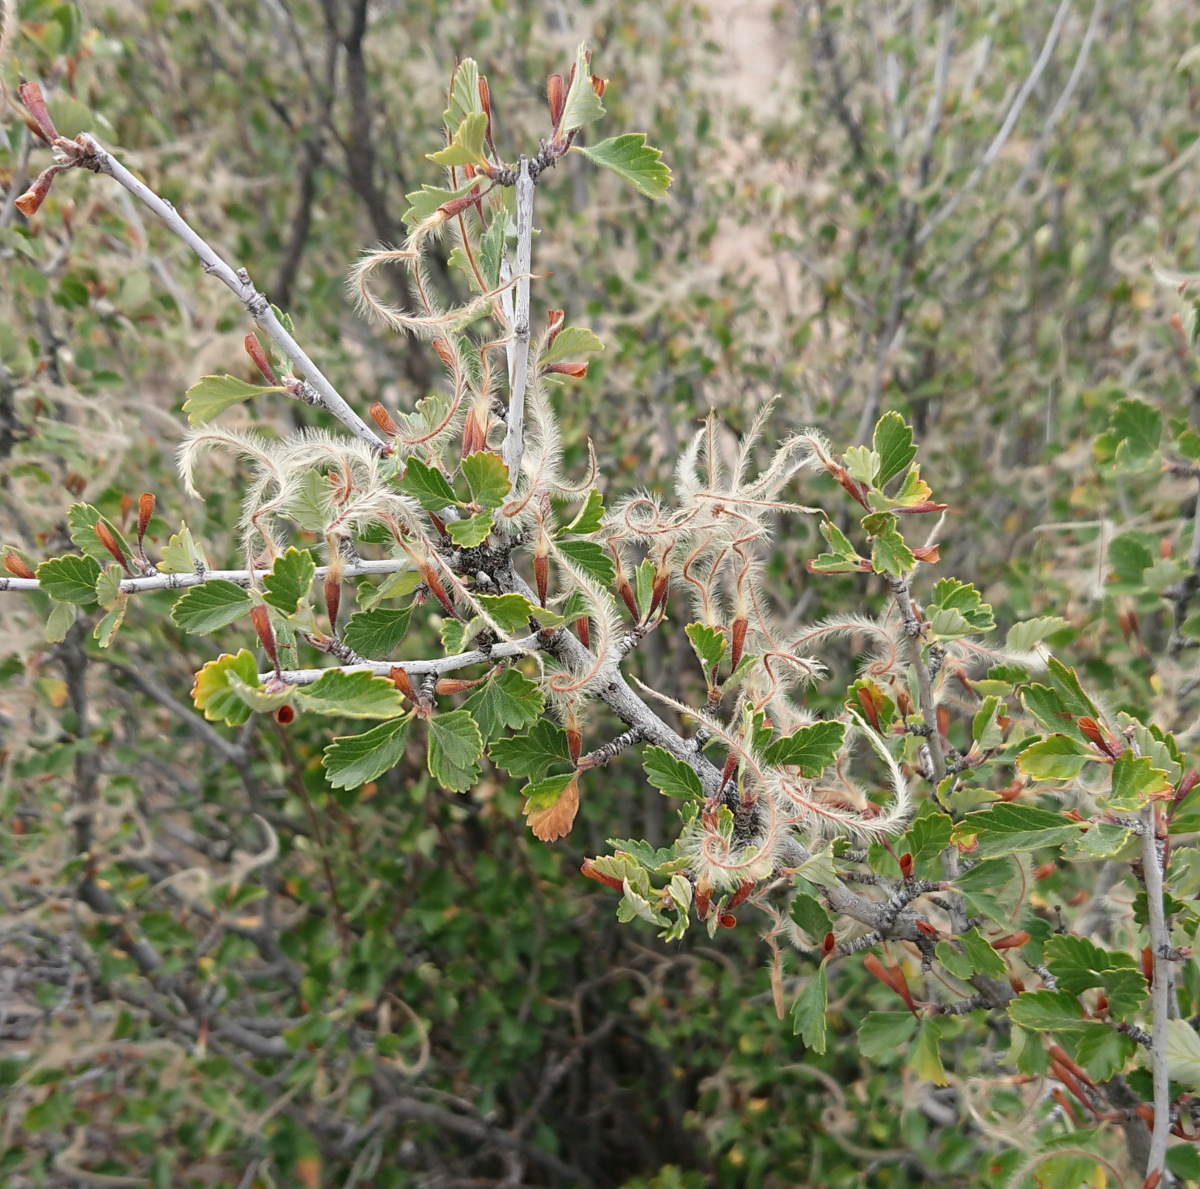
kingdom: Plantae
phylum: Tracheophyta
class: Magnoliopsida
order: Rosales
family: Rosaceae
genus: Cercocarpus
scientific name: Cercocarpus montanus
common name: Alder-leaf cercocarpus
